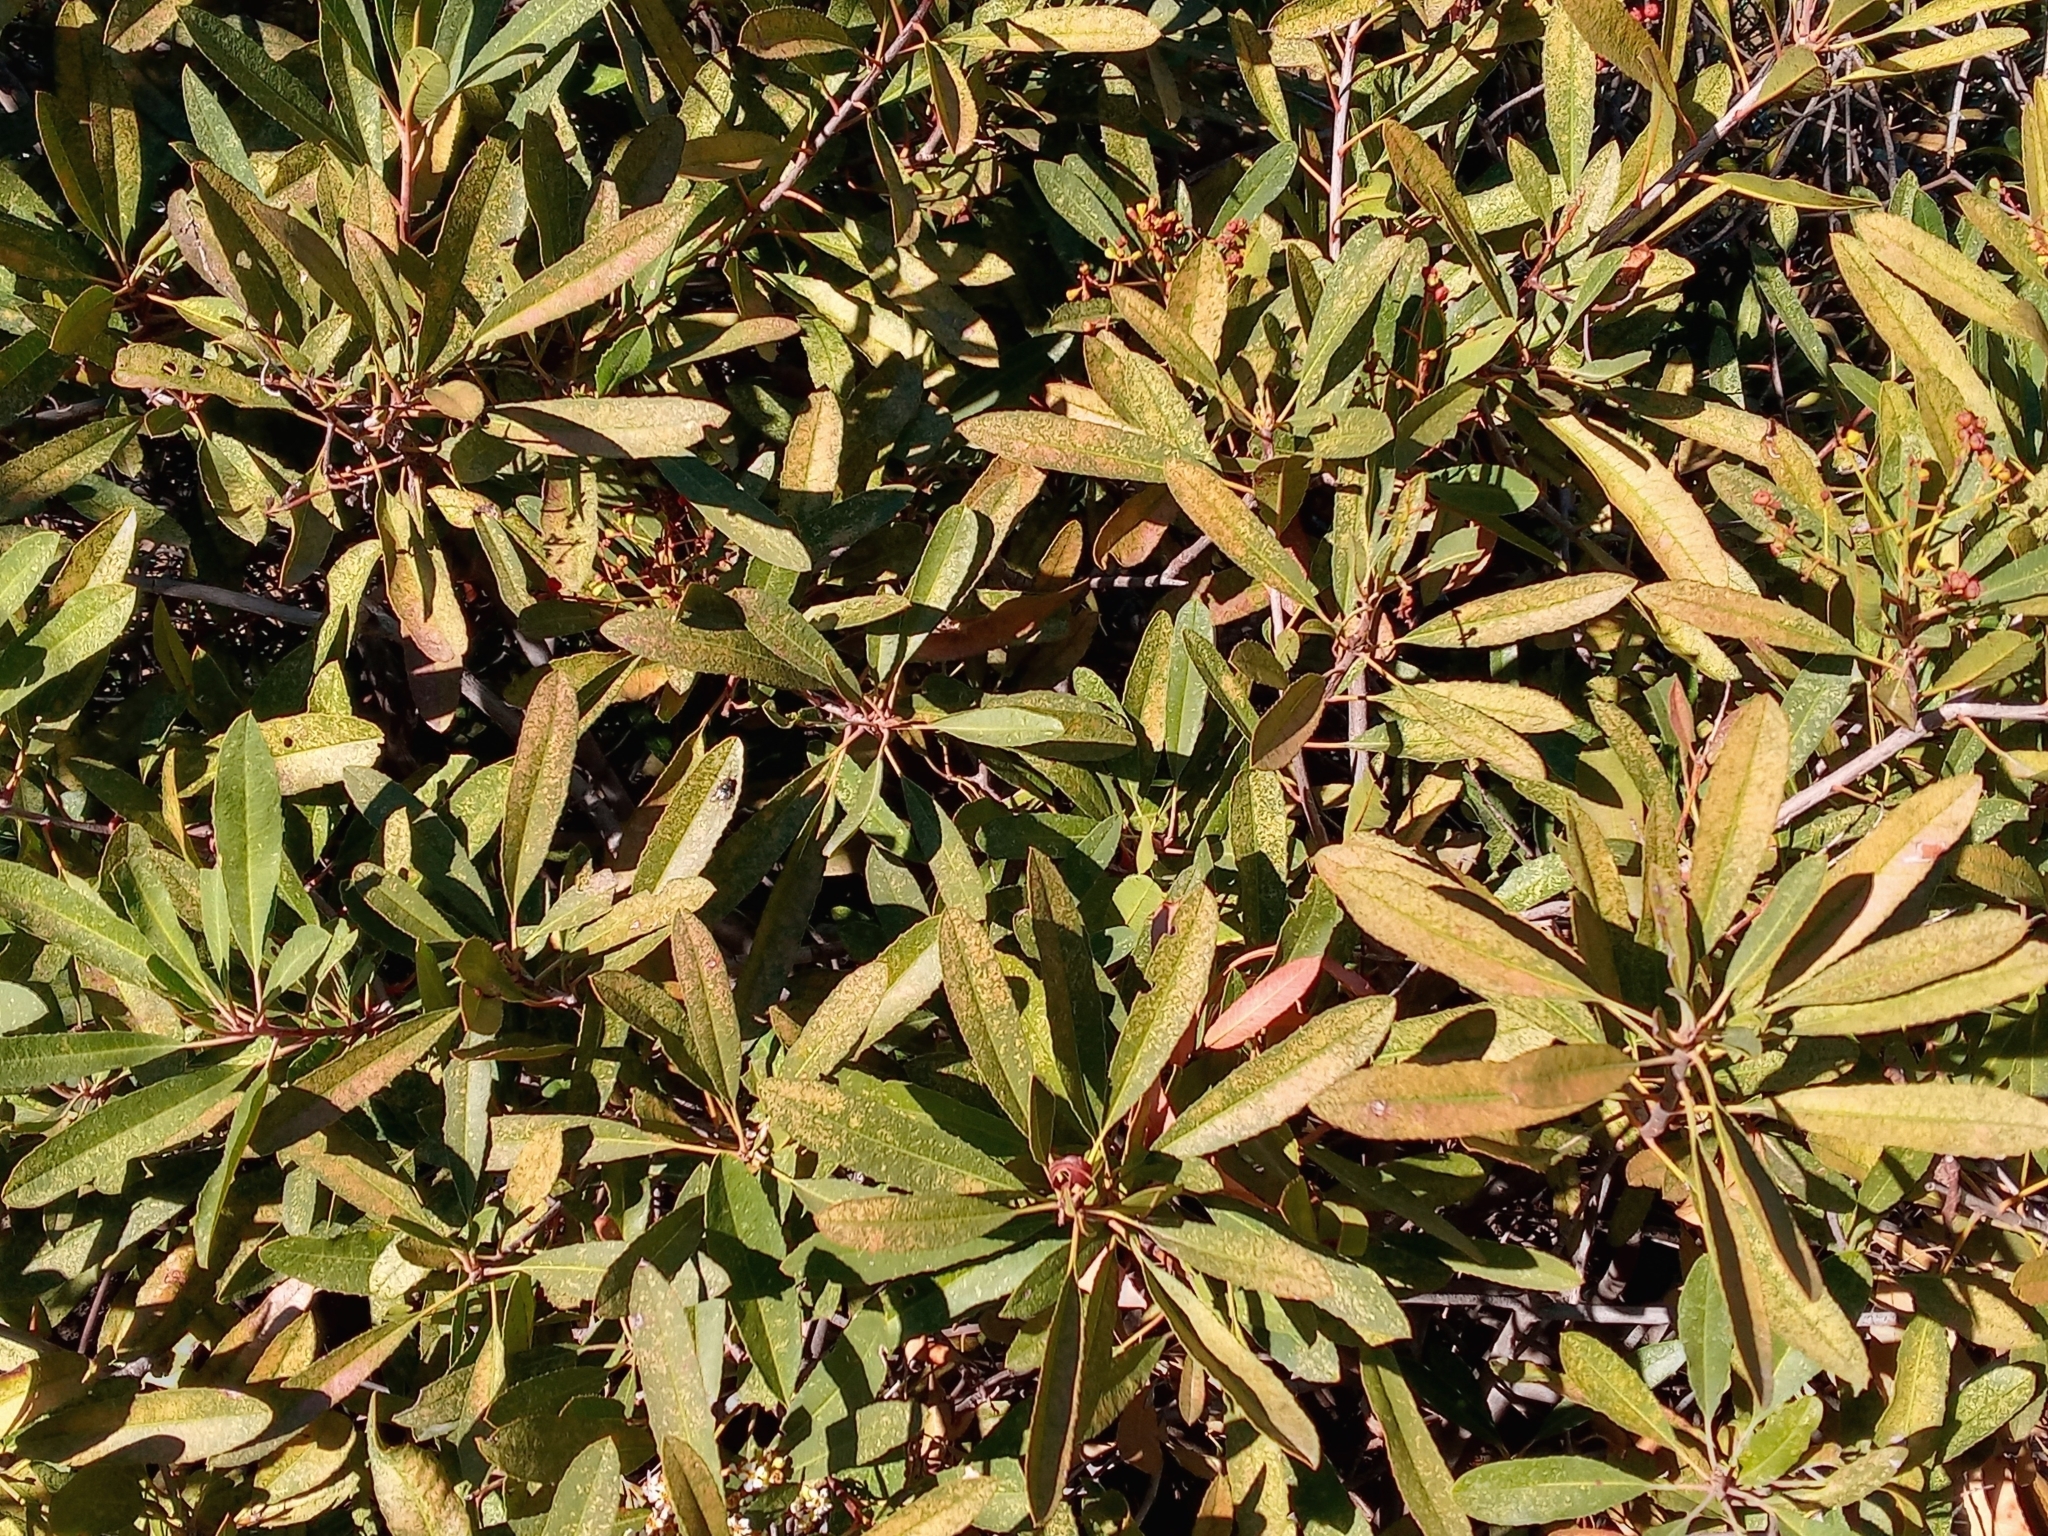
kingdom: Plantae
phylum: Tracheophyta
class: Magnoliopsida
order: Rosales
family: Rosaceae
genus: Heteromeles
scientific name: Heteromeles arbutifolia
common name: California-holly
